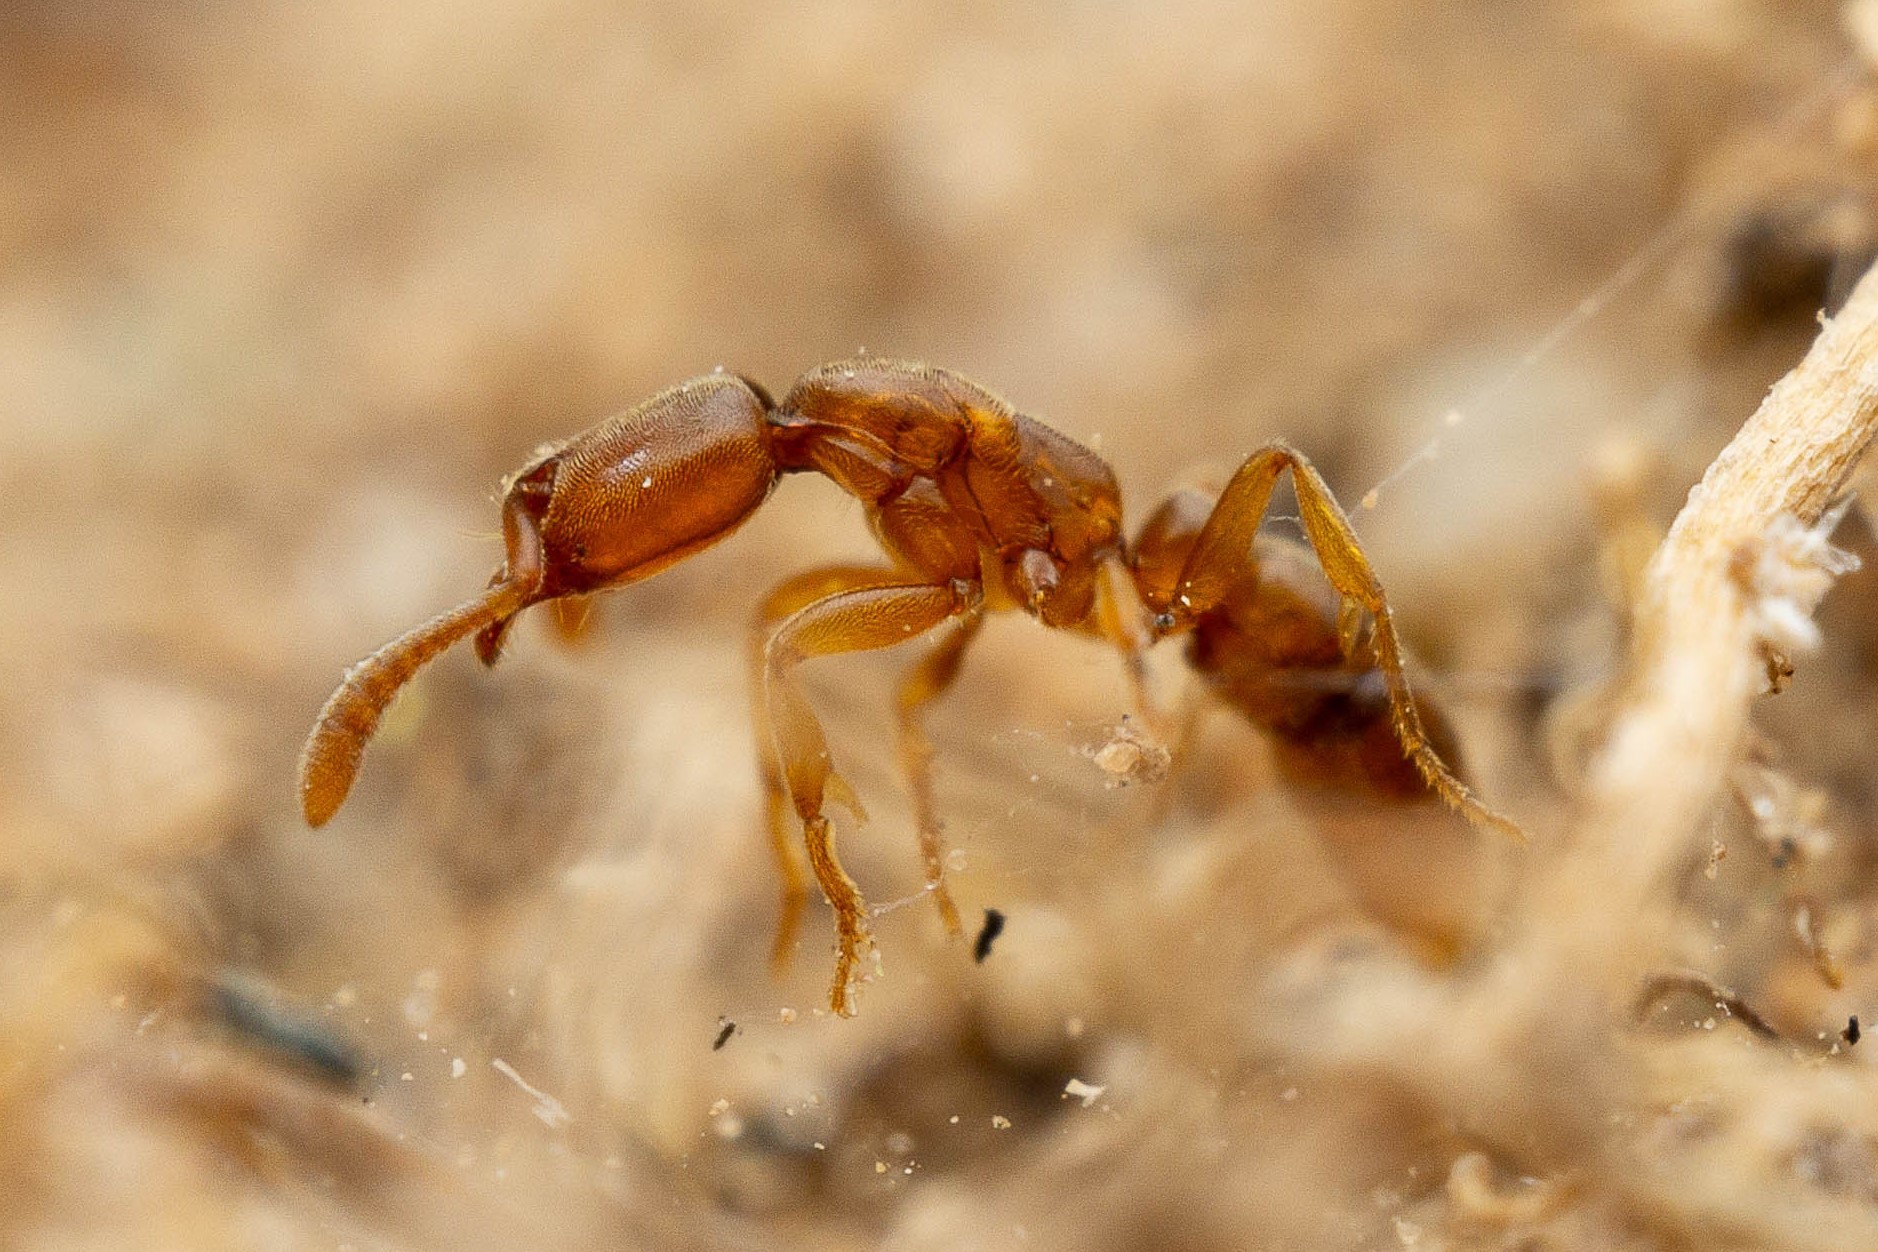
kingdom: Animalia
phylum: Arthropoda
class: Insecta
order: Hymenoptera
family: Formicidae
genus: Hypoponera
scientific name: Hypoponera punctatissima
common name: Pantropical mini-ponerine ant
